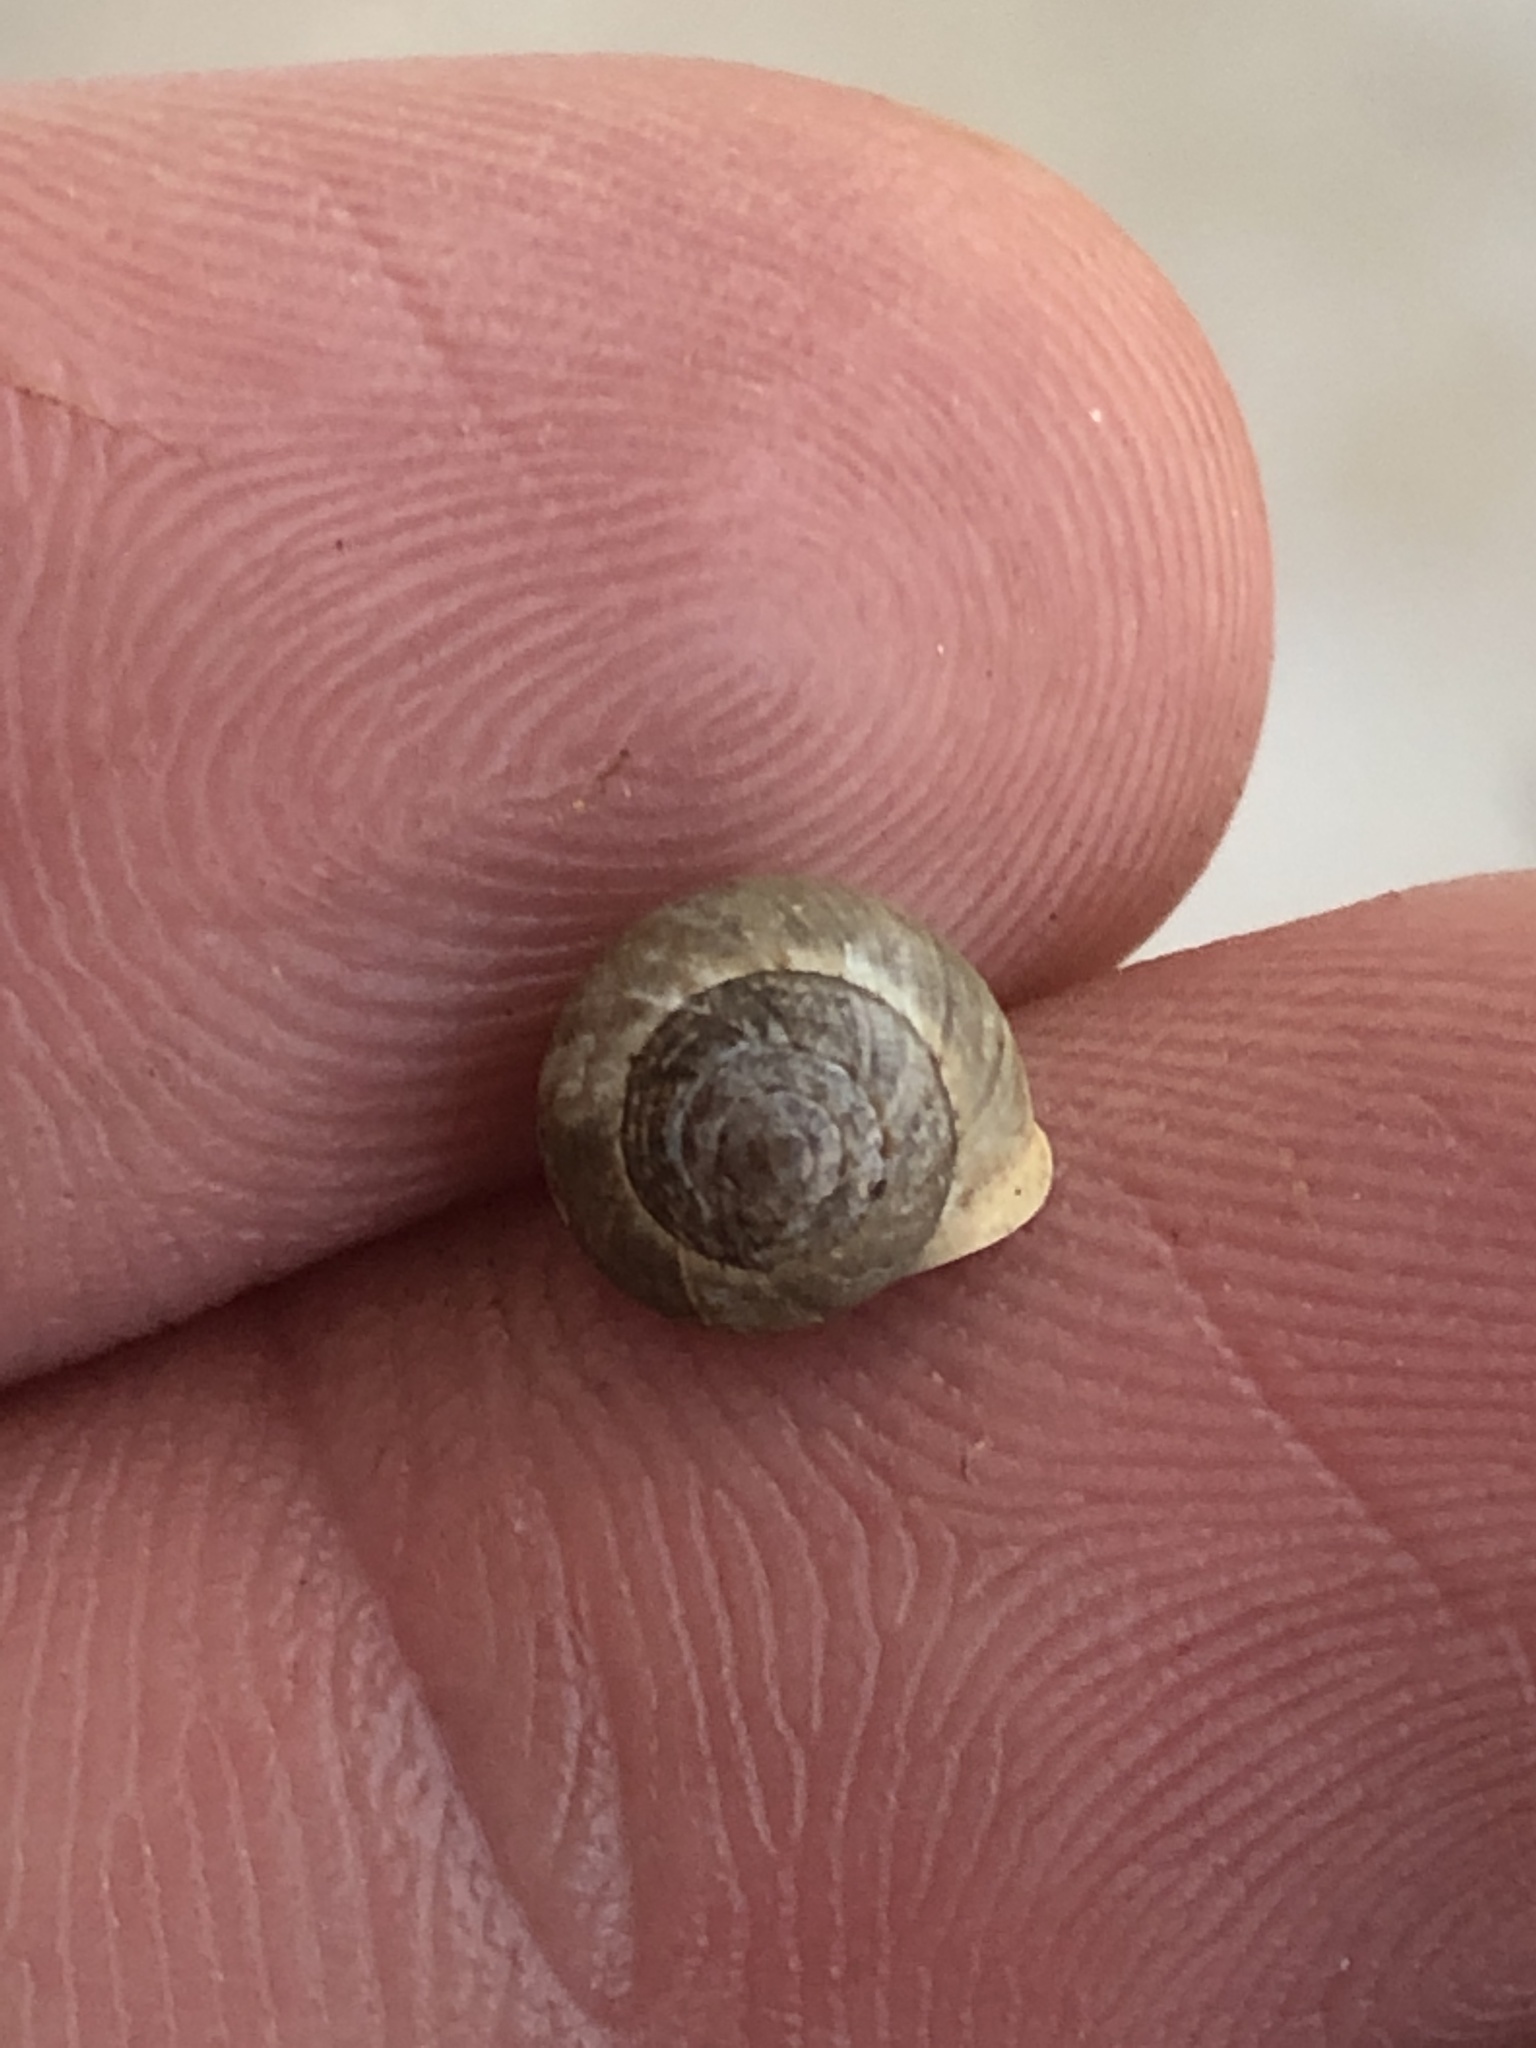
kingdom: Animalia
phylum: Mollusca
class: Gastropoda
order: Cycloneritida
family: Helicinidae
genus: Helicina
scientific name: Helicina orbiculata
